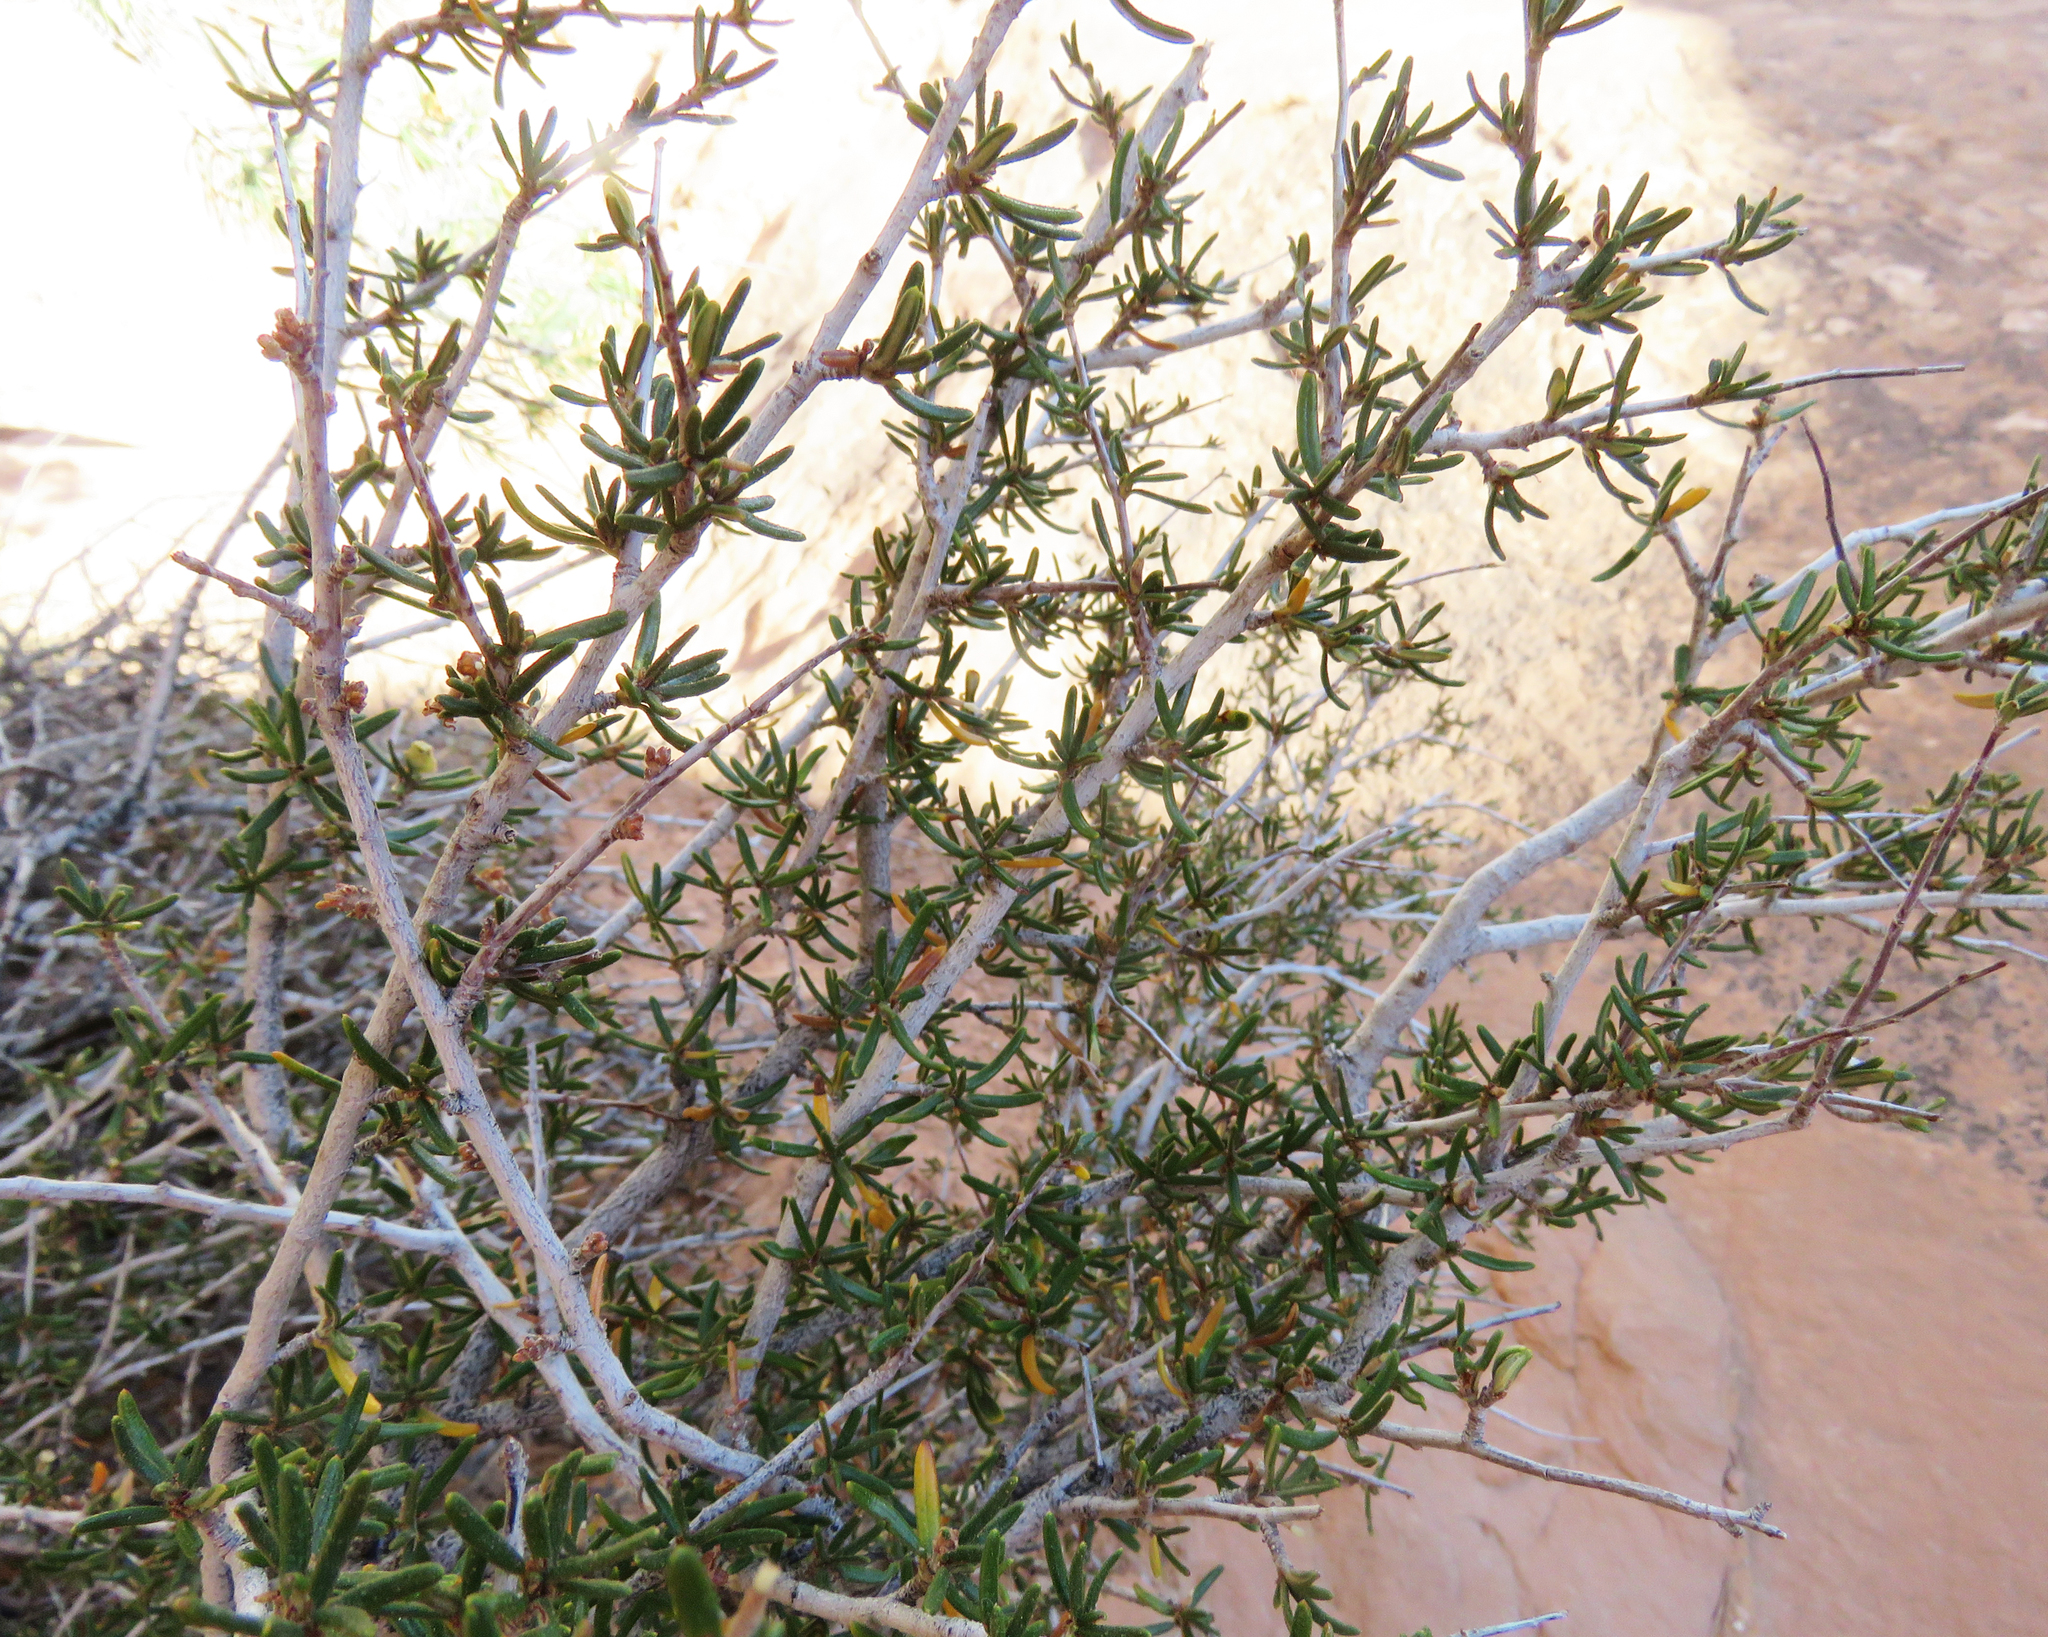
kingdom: Plantae
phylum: Tracheophyta
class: Magnoliopsida
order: Rosales
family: Rosaceae
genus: Cercocarpus
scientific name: Cercocarpus intricatus
